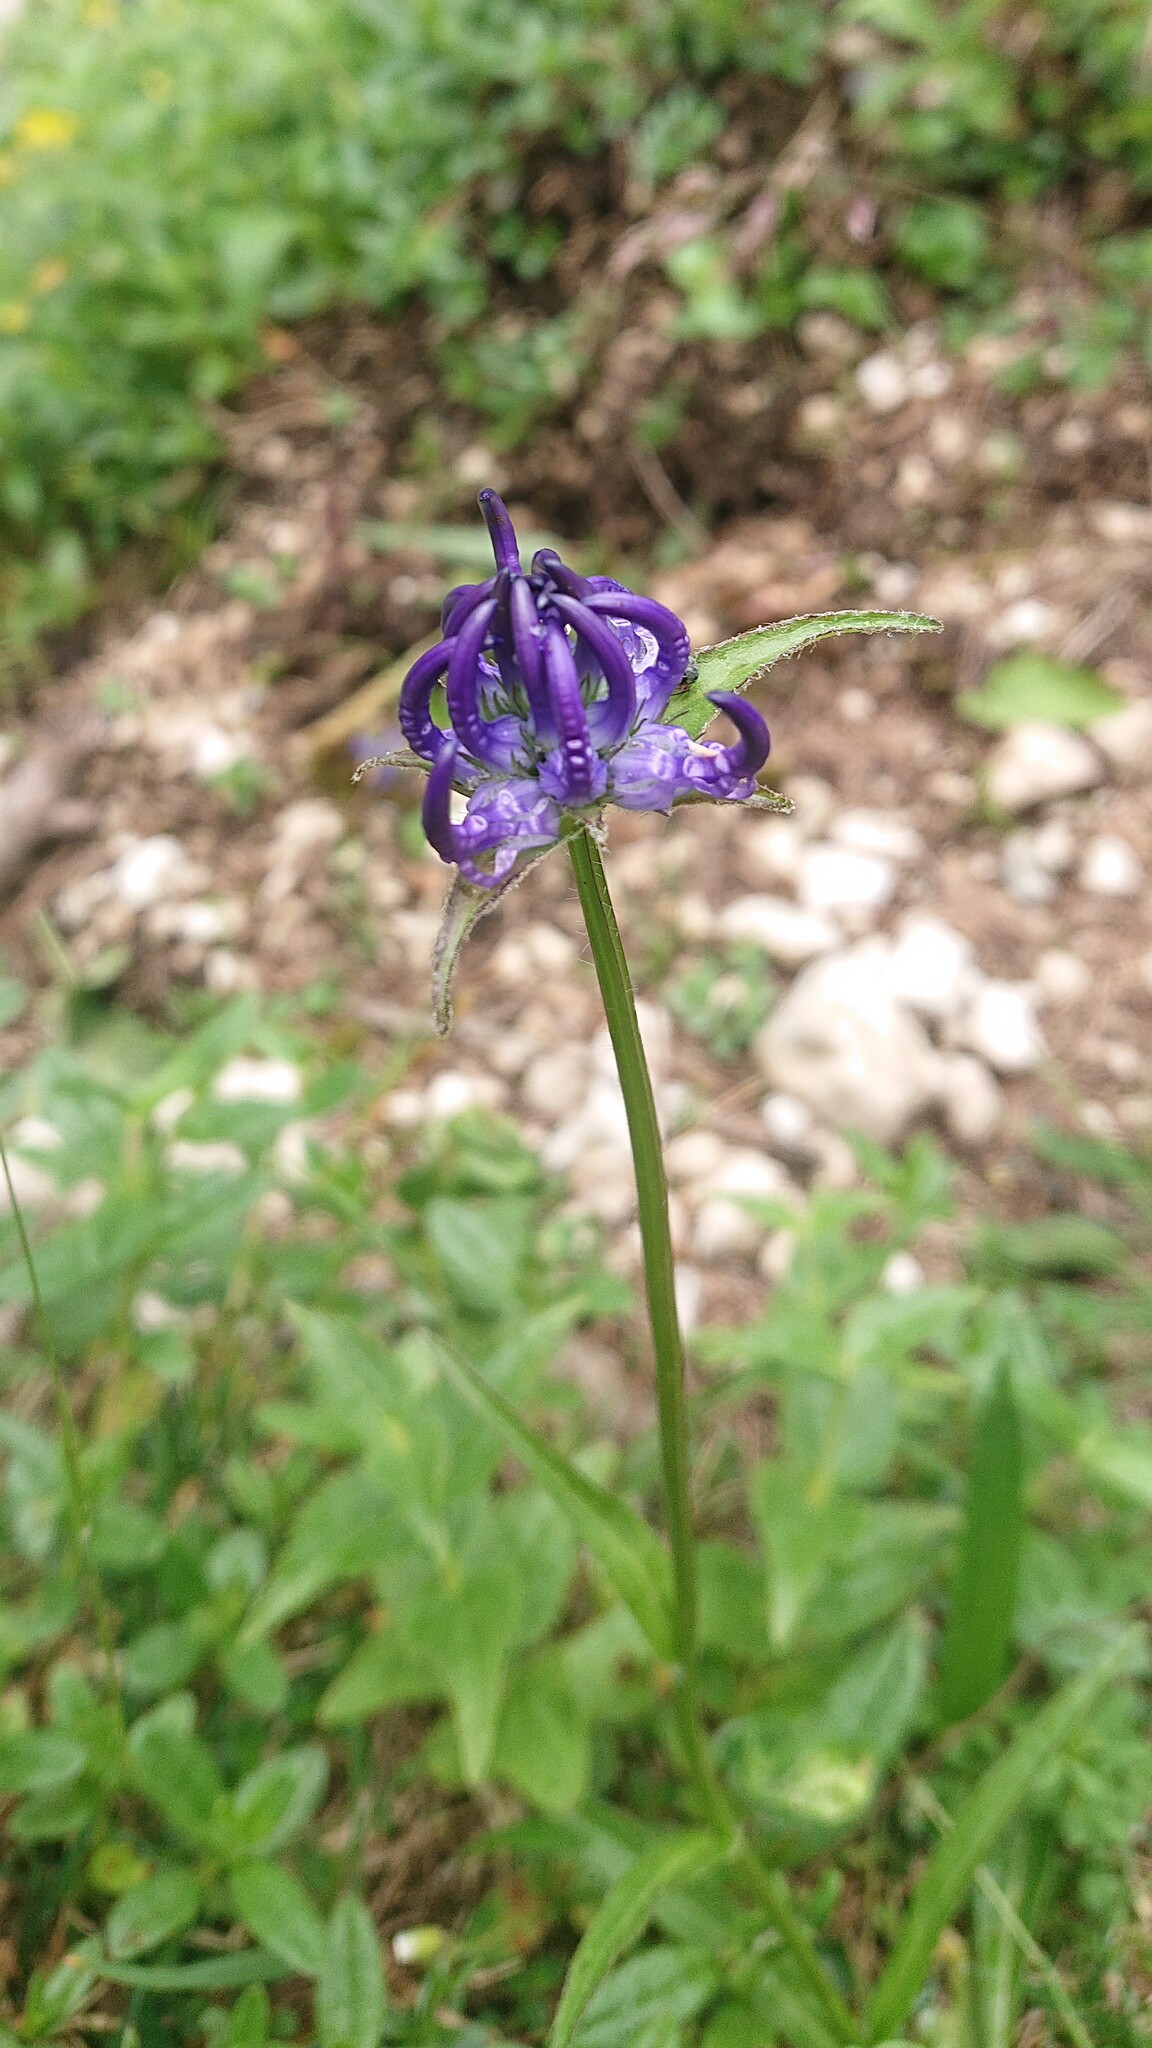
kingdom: Plantae
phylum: Tracheophyta
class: Magnoliopsida
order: Asterales
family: Campanulaceae
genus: Phyteuma
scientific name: Phyteuma orbiculare
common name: Round-headed rampion
